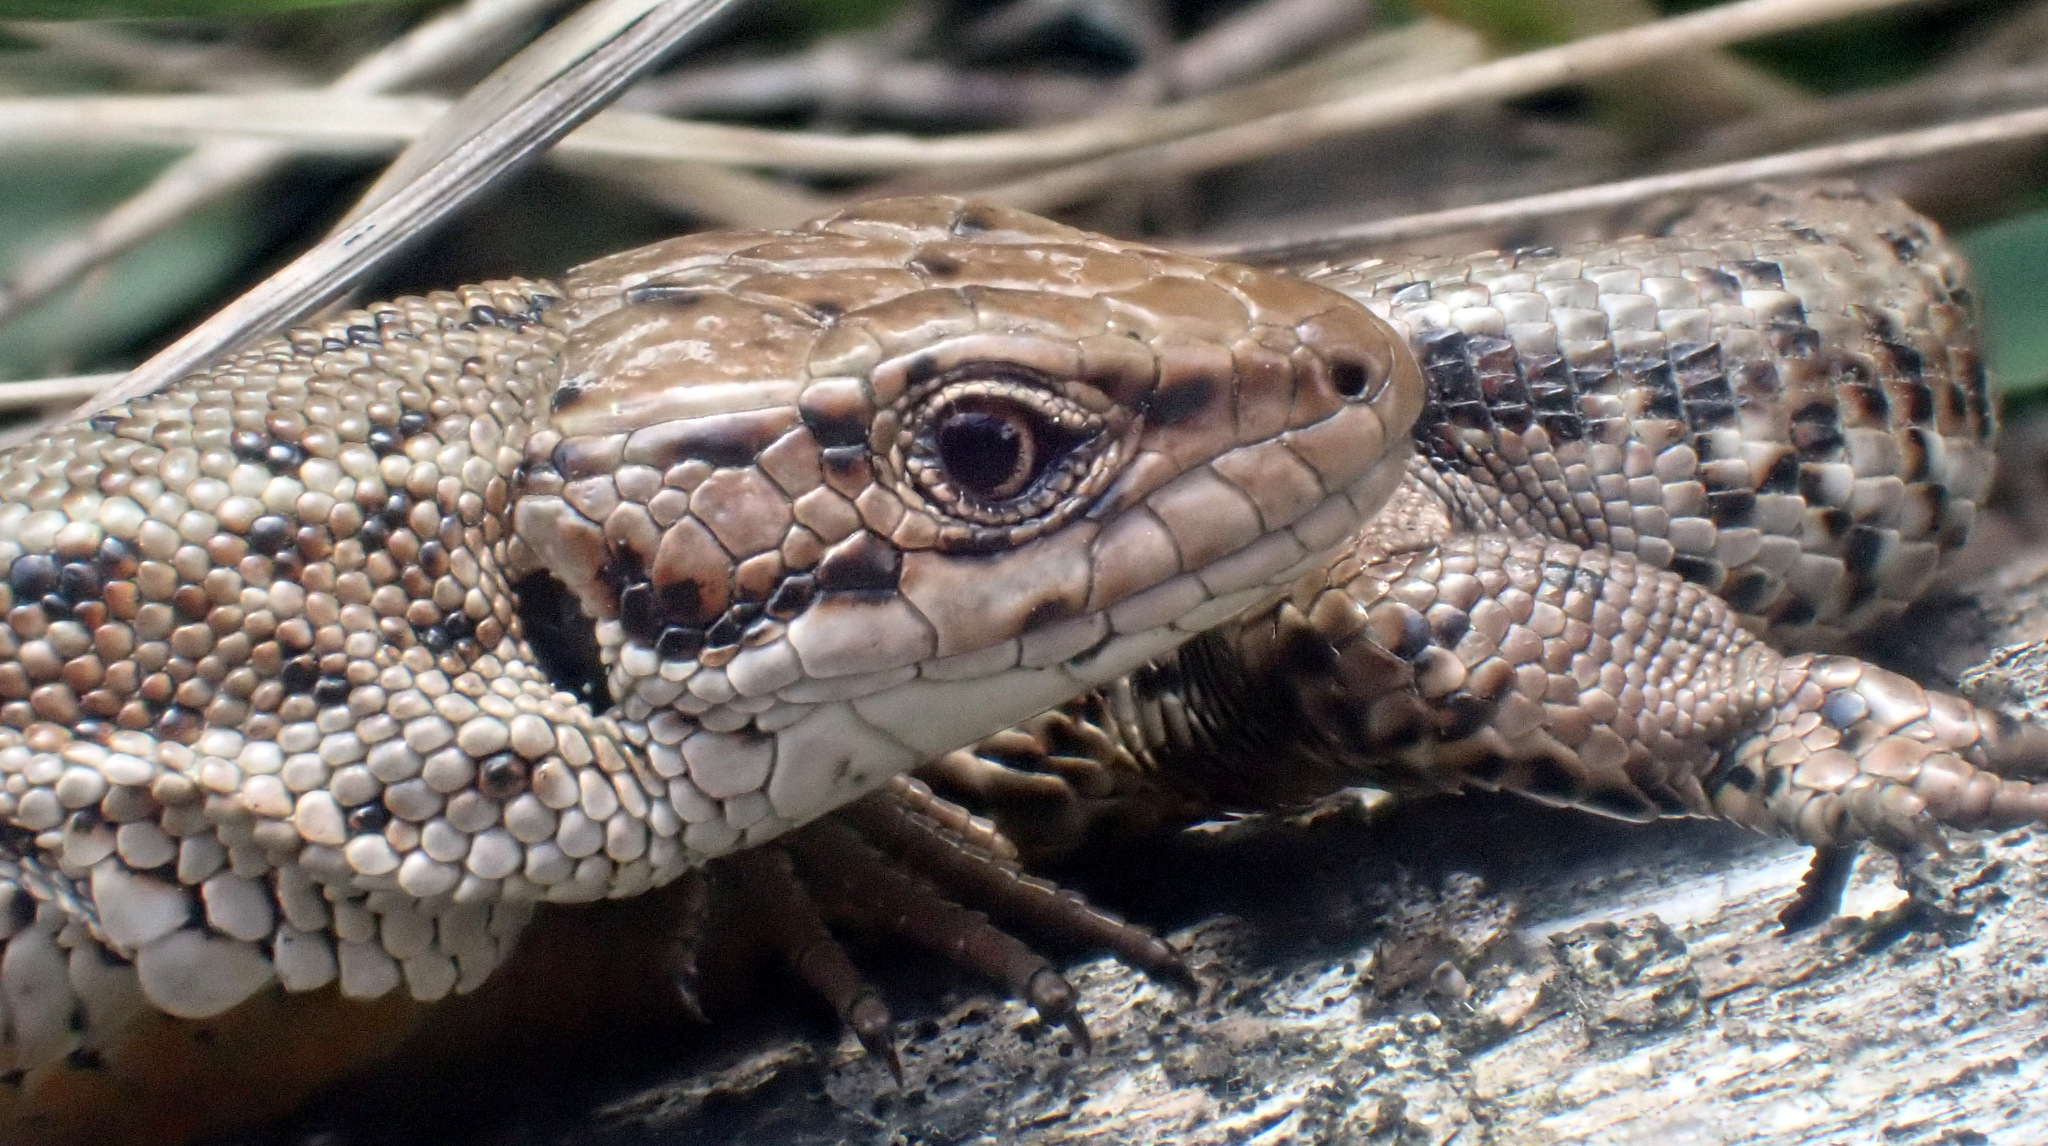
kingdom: Animalia
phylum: Chordata
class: Squamata
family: Lacertidae
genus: Zootoca
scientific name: Zootoca vivipara
